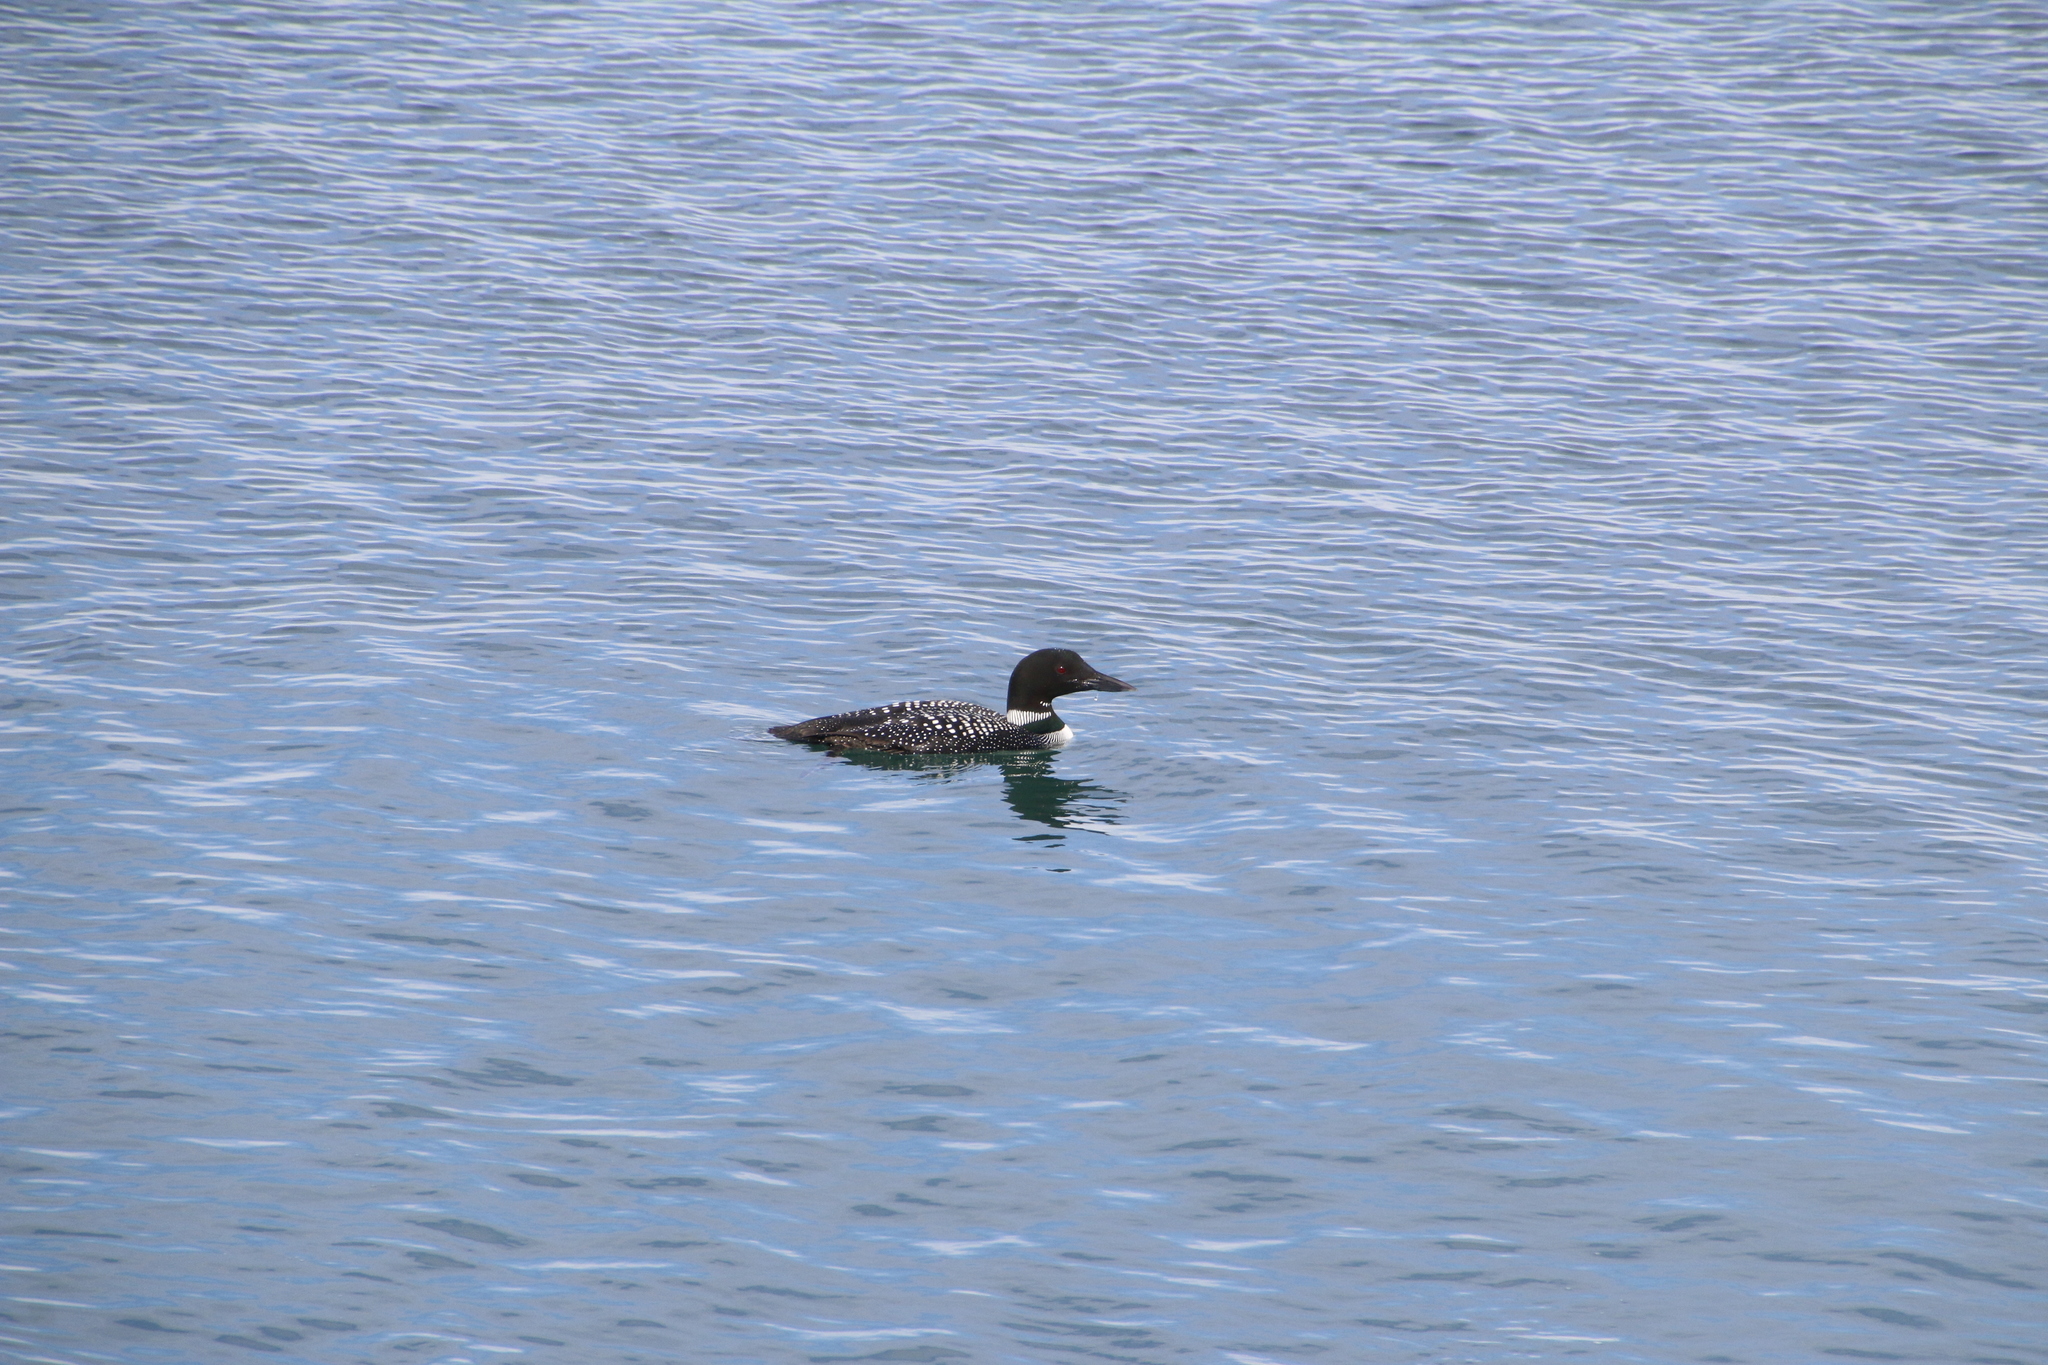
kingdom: Animalia
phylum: Chordata
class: Aves
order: Gaviiformes
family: Gaviidae
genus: Gavia
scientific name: Gavia immer
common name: Common loon
